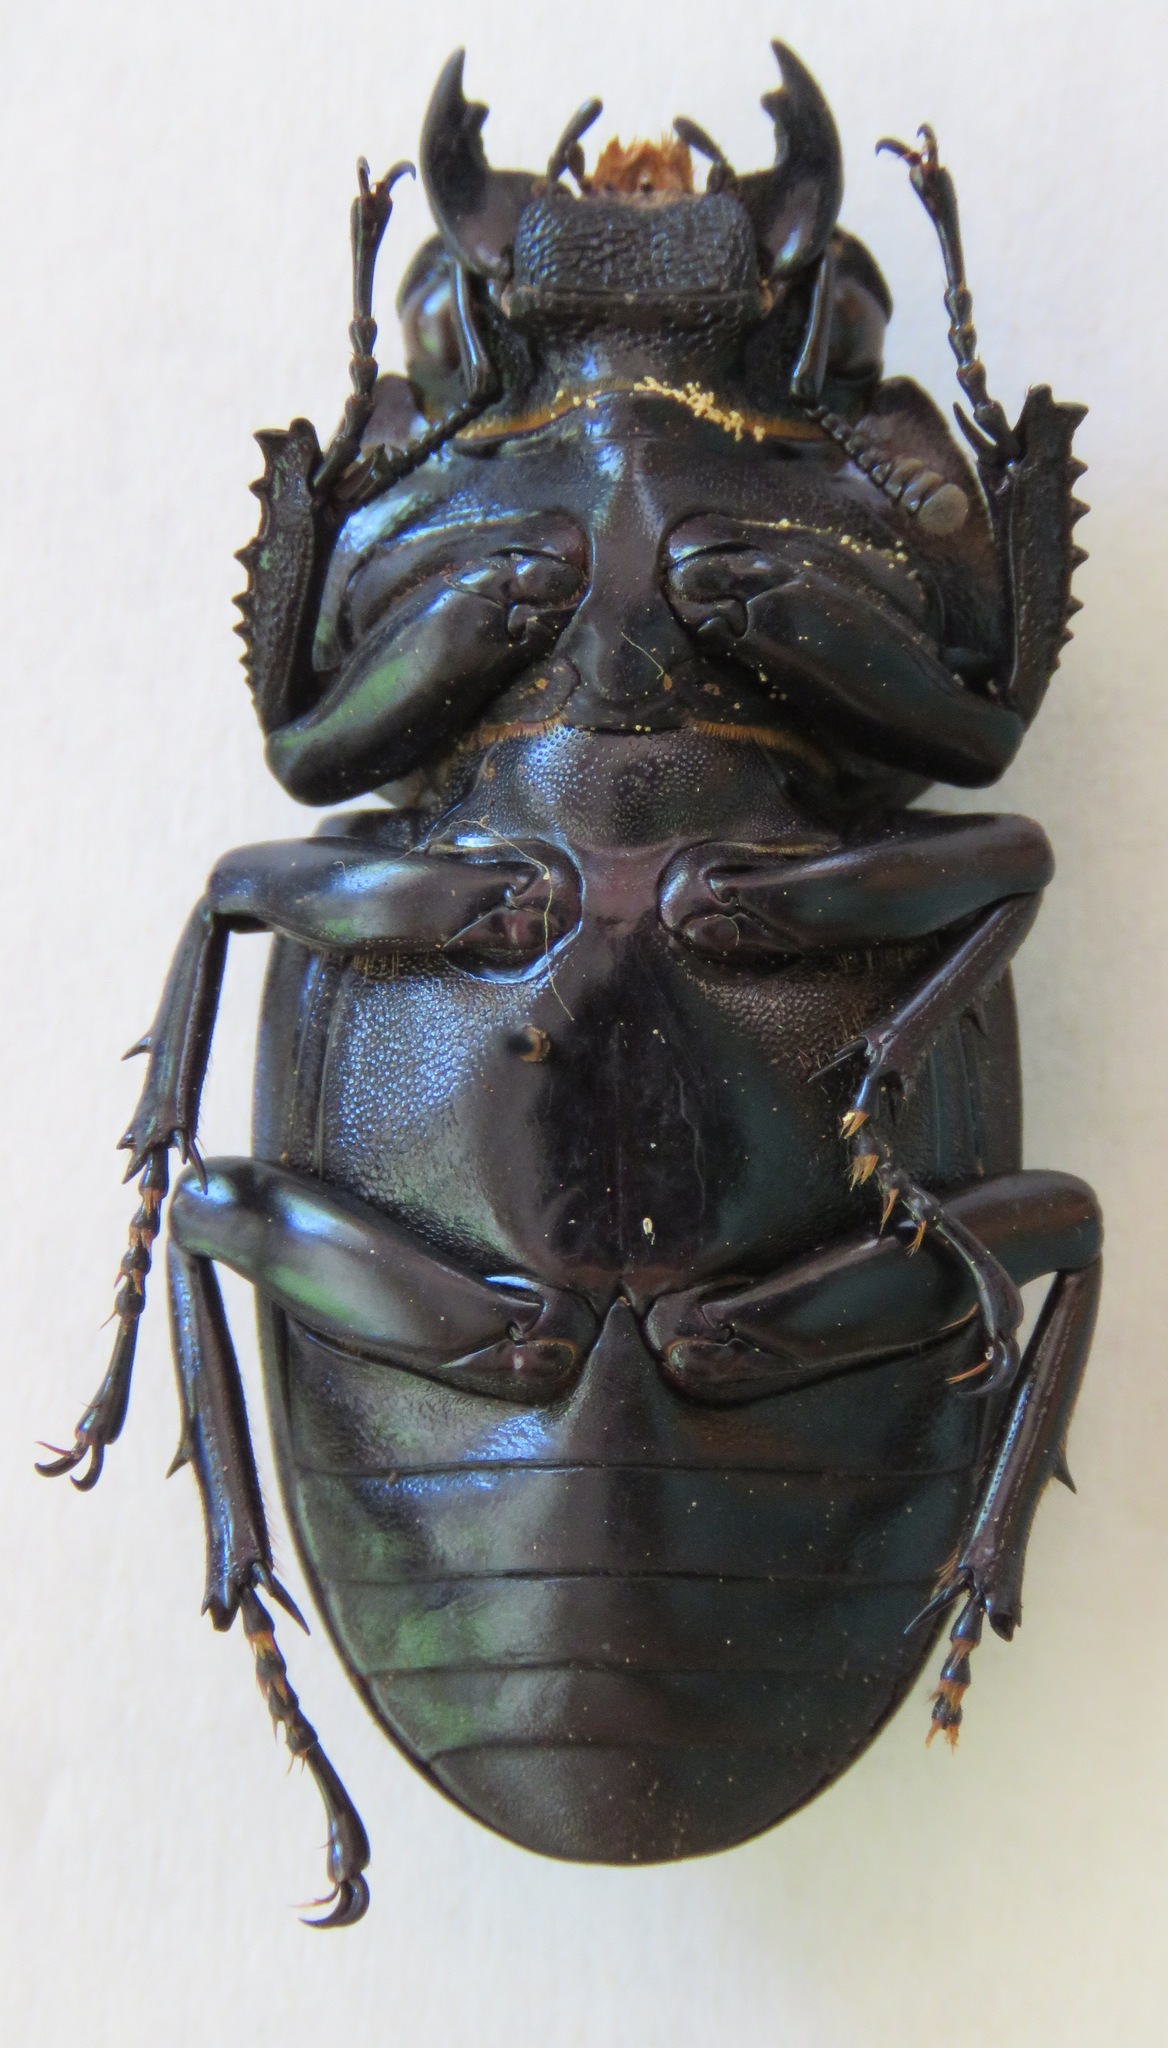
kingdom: Animalia
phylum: Arthropoda
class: Insecta
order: Coleoptera
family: Lucanidae
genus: Dorcus
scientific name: Dorcus antaeus
